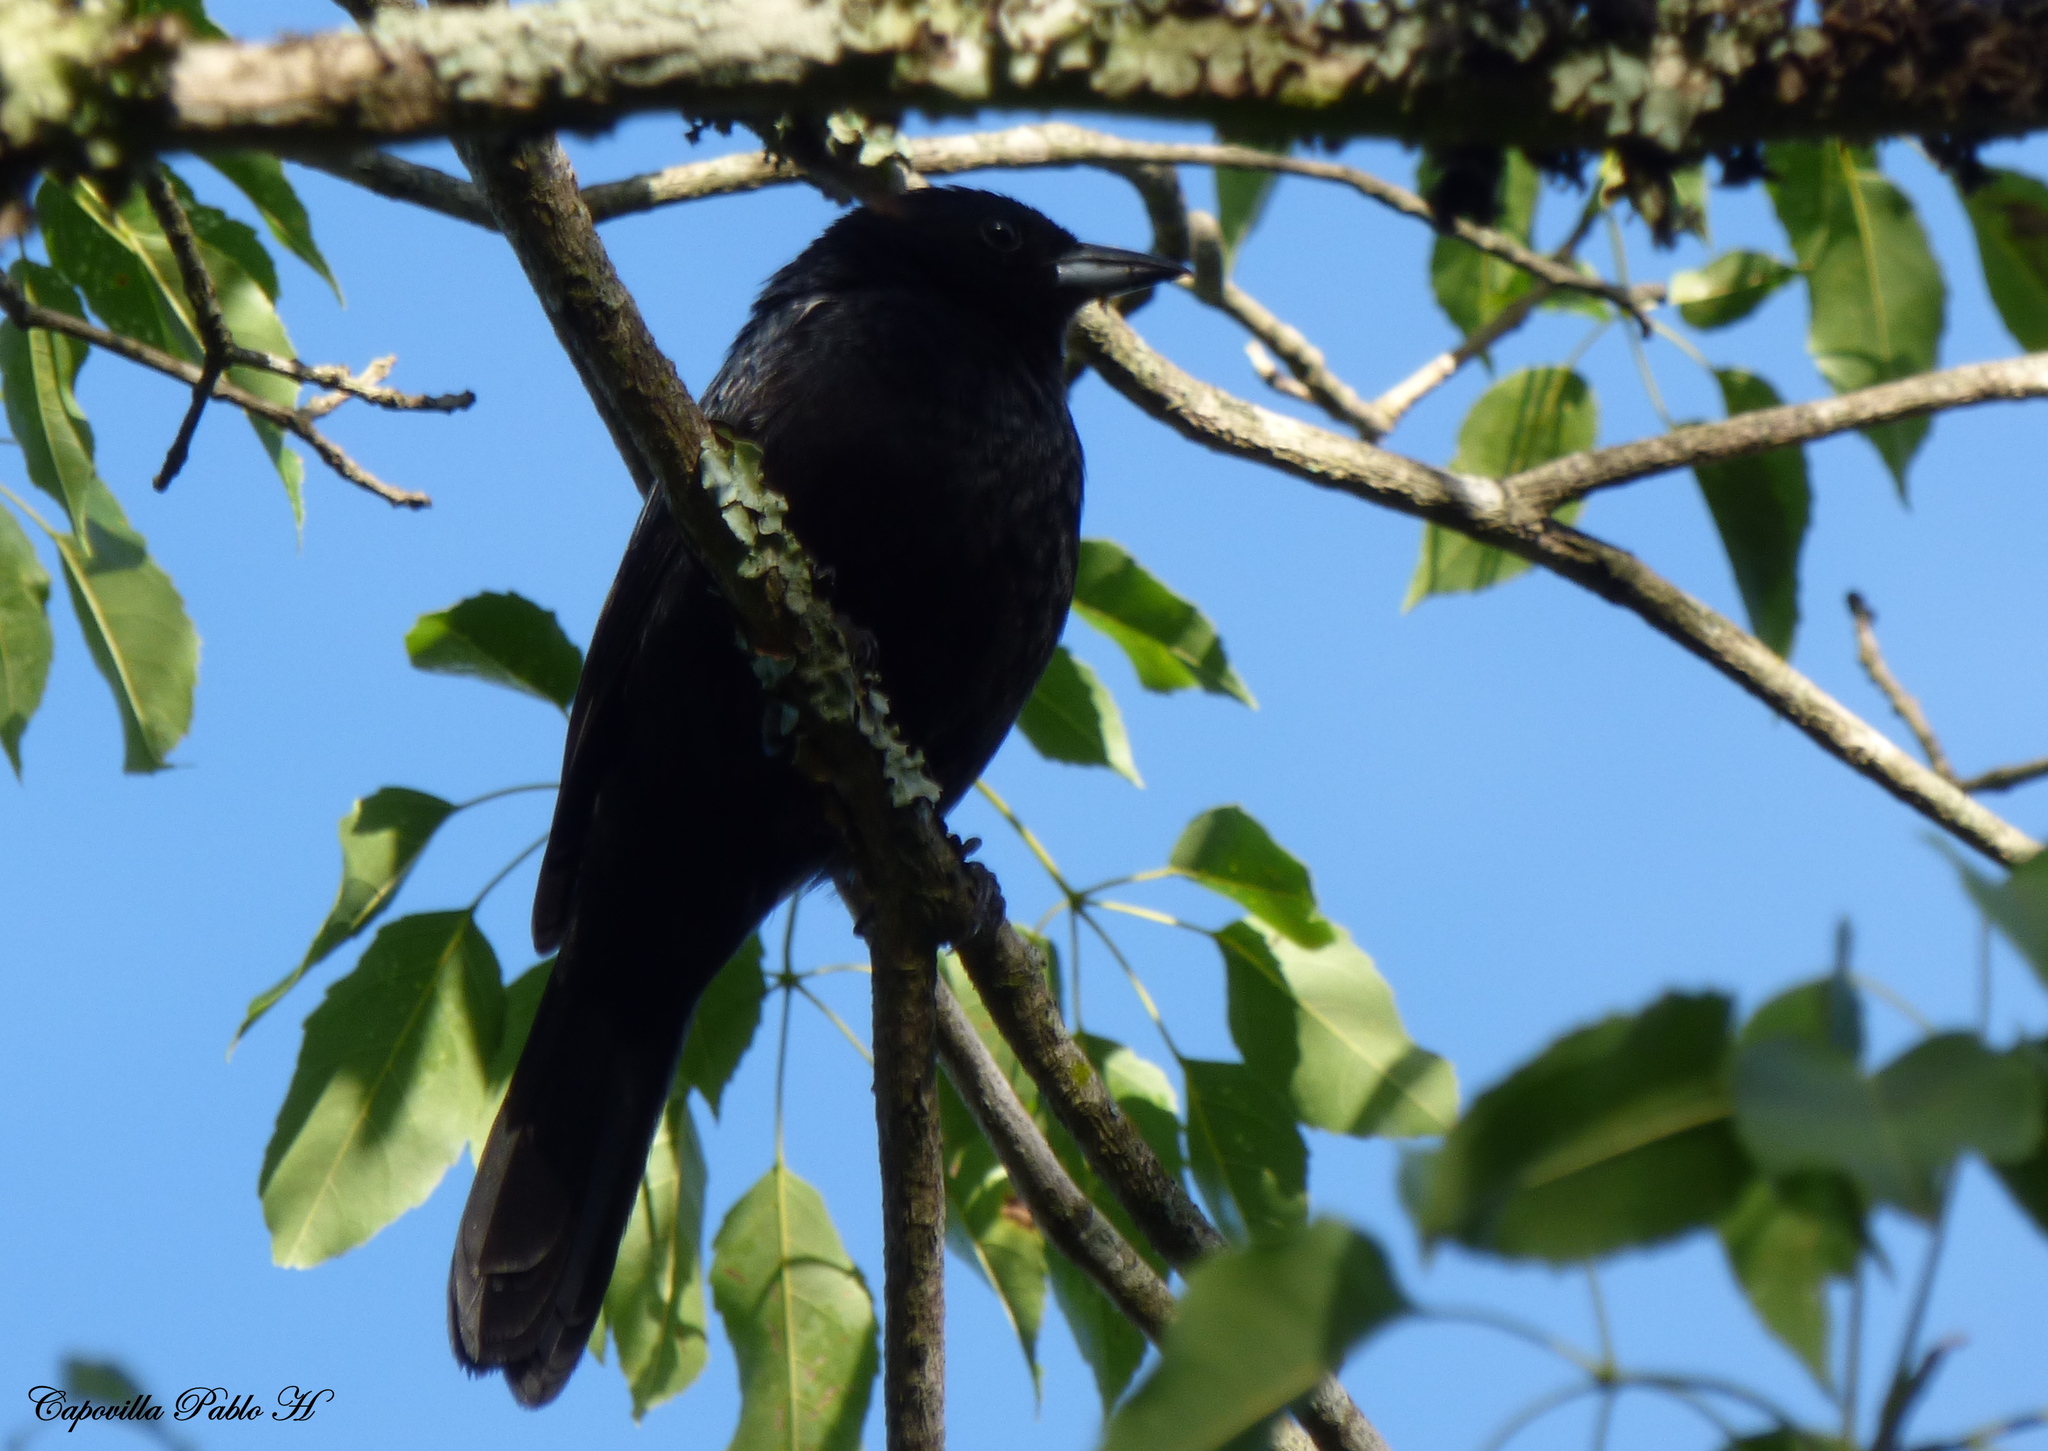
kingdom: Animalia
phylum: Chordata
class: Aves
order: Passeriformes
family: Thraupidae
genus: Tachyphonus
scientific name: Tachyphonus rufus
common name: White-lined tanager
